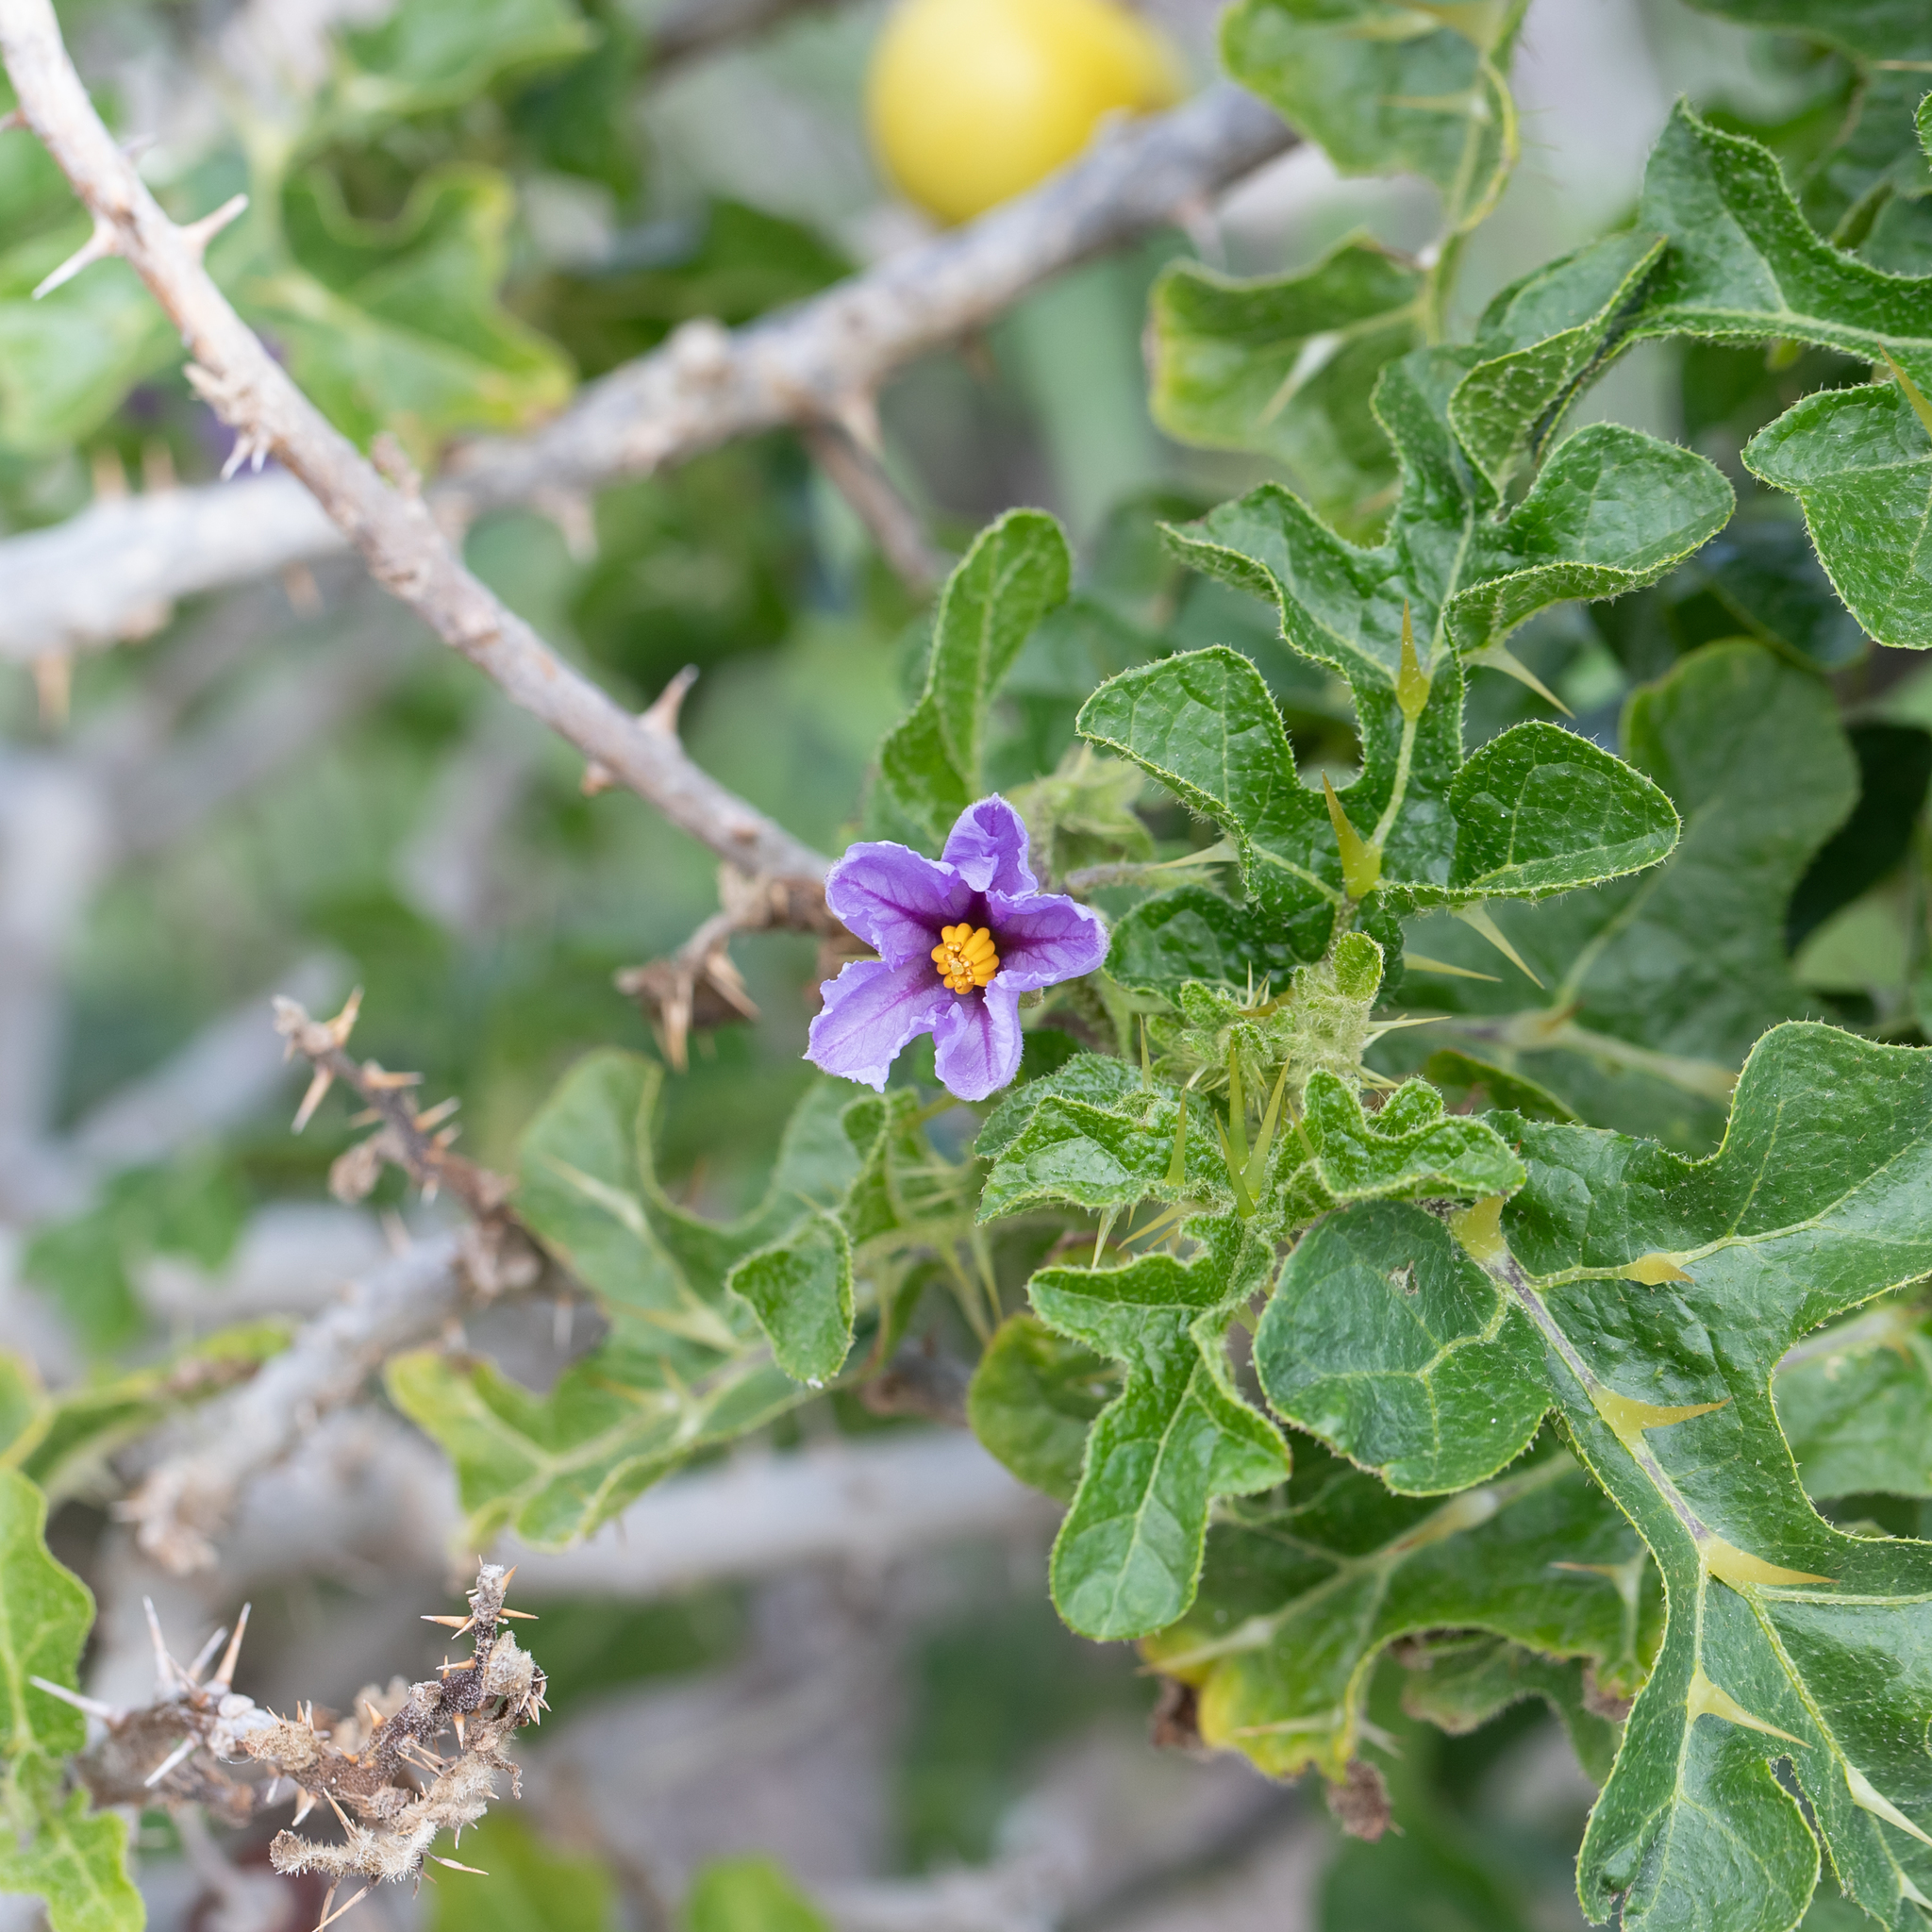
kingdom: Plantae
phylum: Tracheophyta
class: Magnoliopsida
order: Solanales
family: Solanaceae
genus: Solanum
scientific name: Solanum linnaeanum
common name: Nightshade
